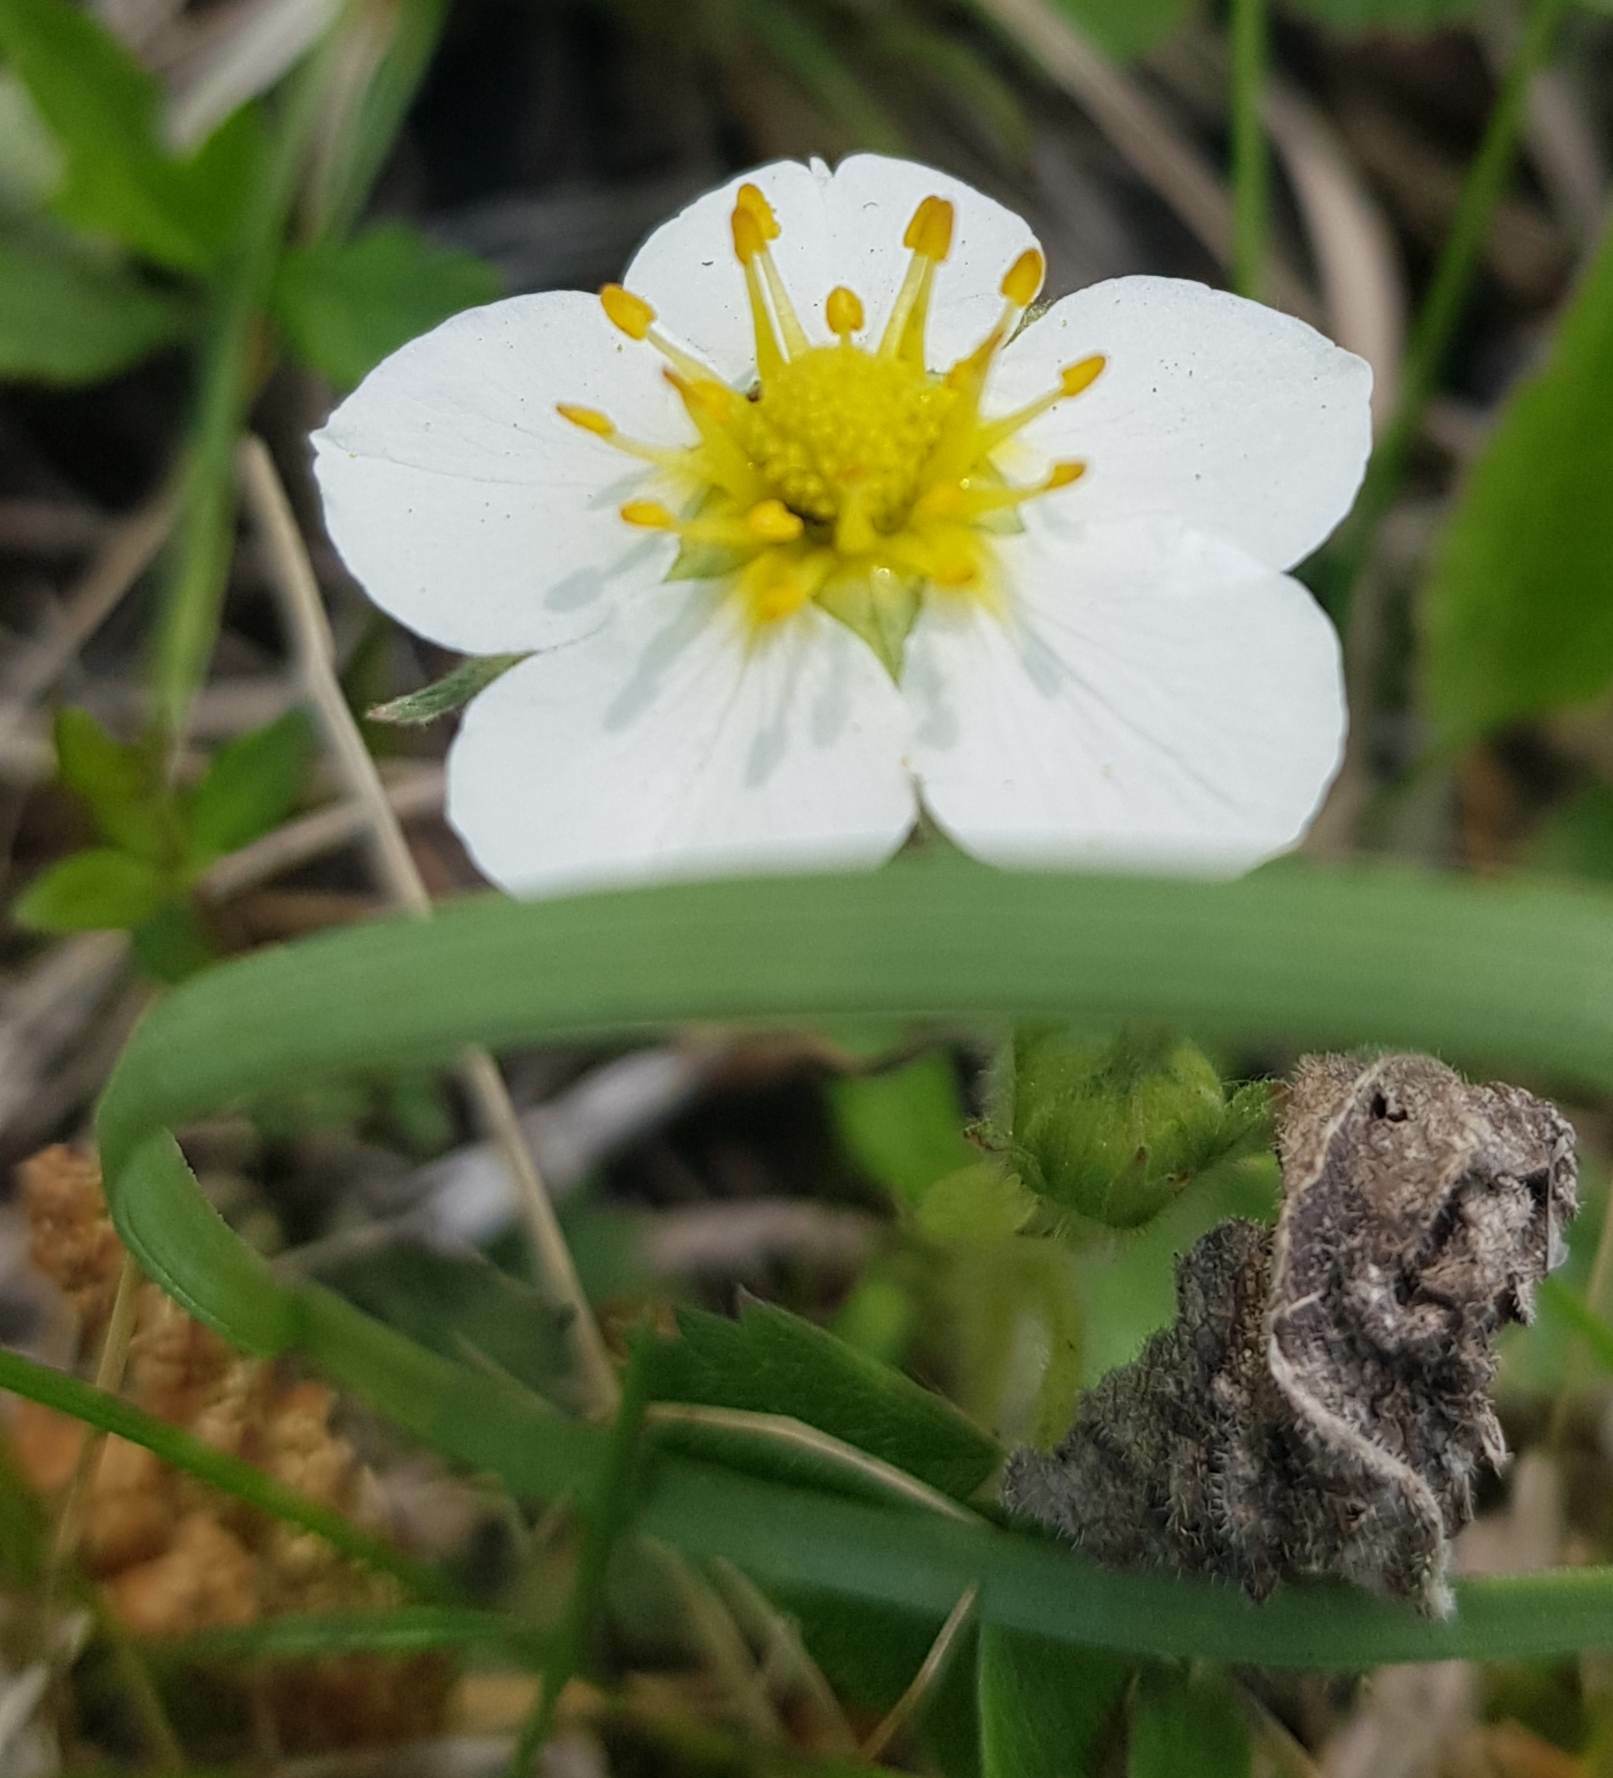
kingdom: Plantae
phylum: Tracheophyta
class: Magnoliopsida
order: Rosales
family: Rosaceae
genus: Fragaria
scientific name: Fragaria orientalis
